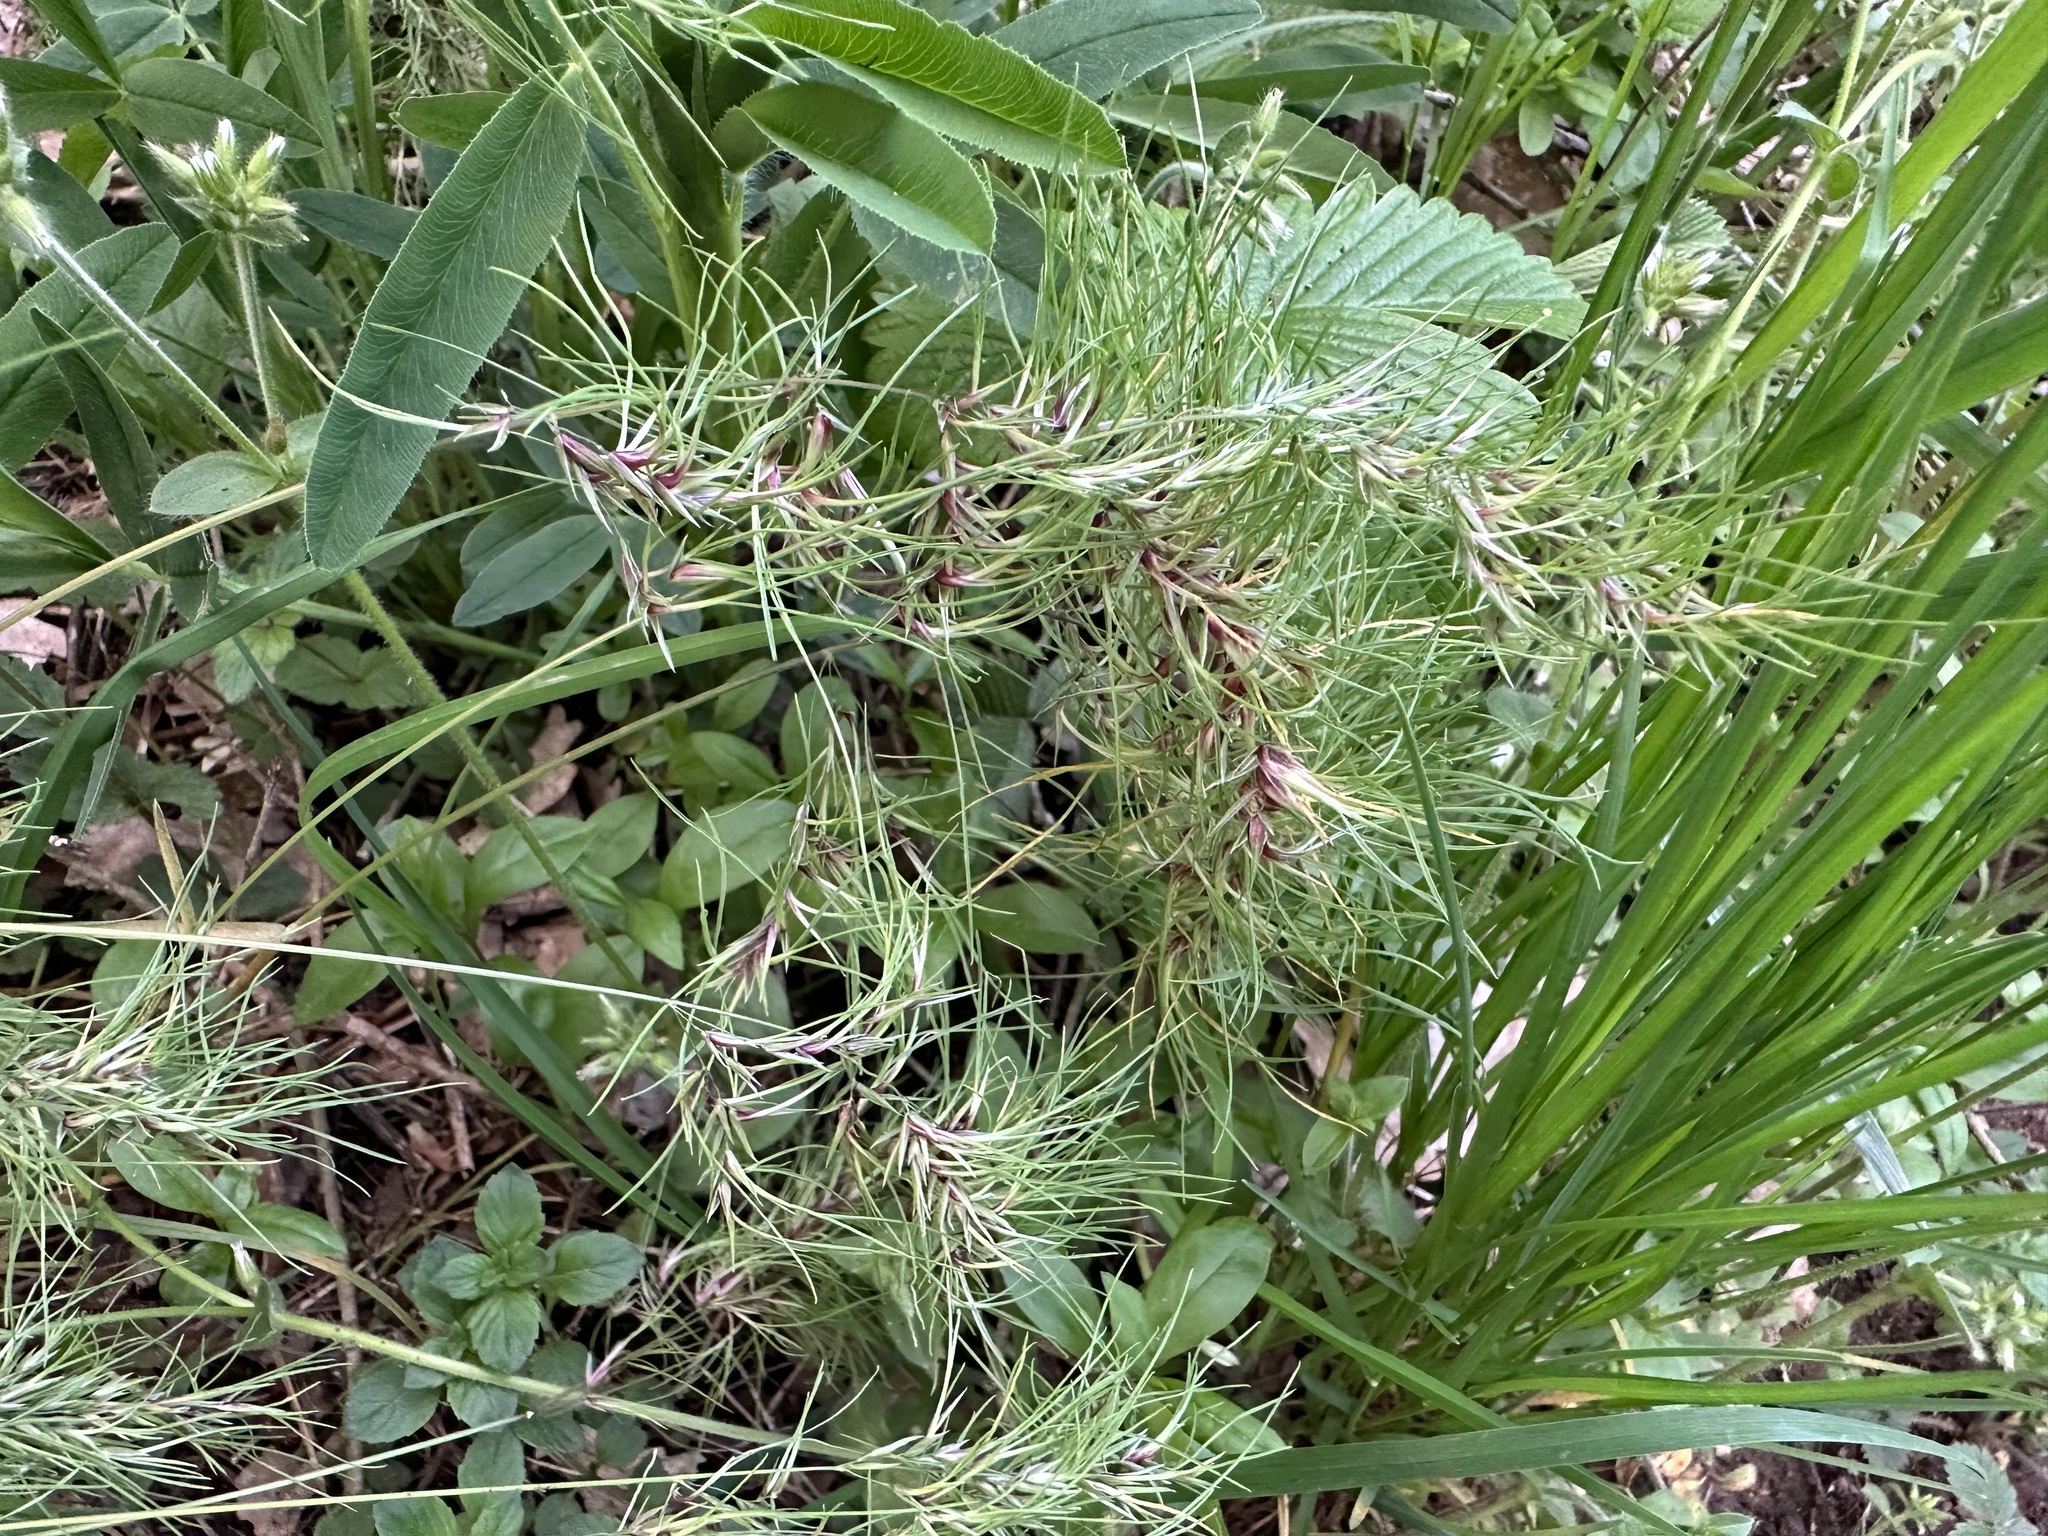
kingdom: Plantae
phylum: Tracheophyta
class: Liliopsida
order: Poales
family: Poaceae
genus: Poa
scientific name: Poa bulbosa
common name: Bulbous bluegrass
